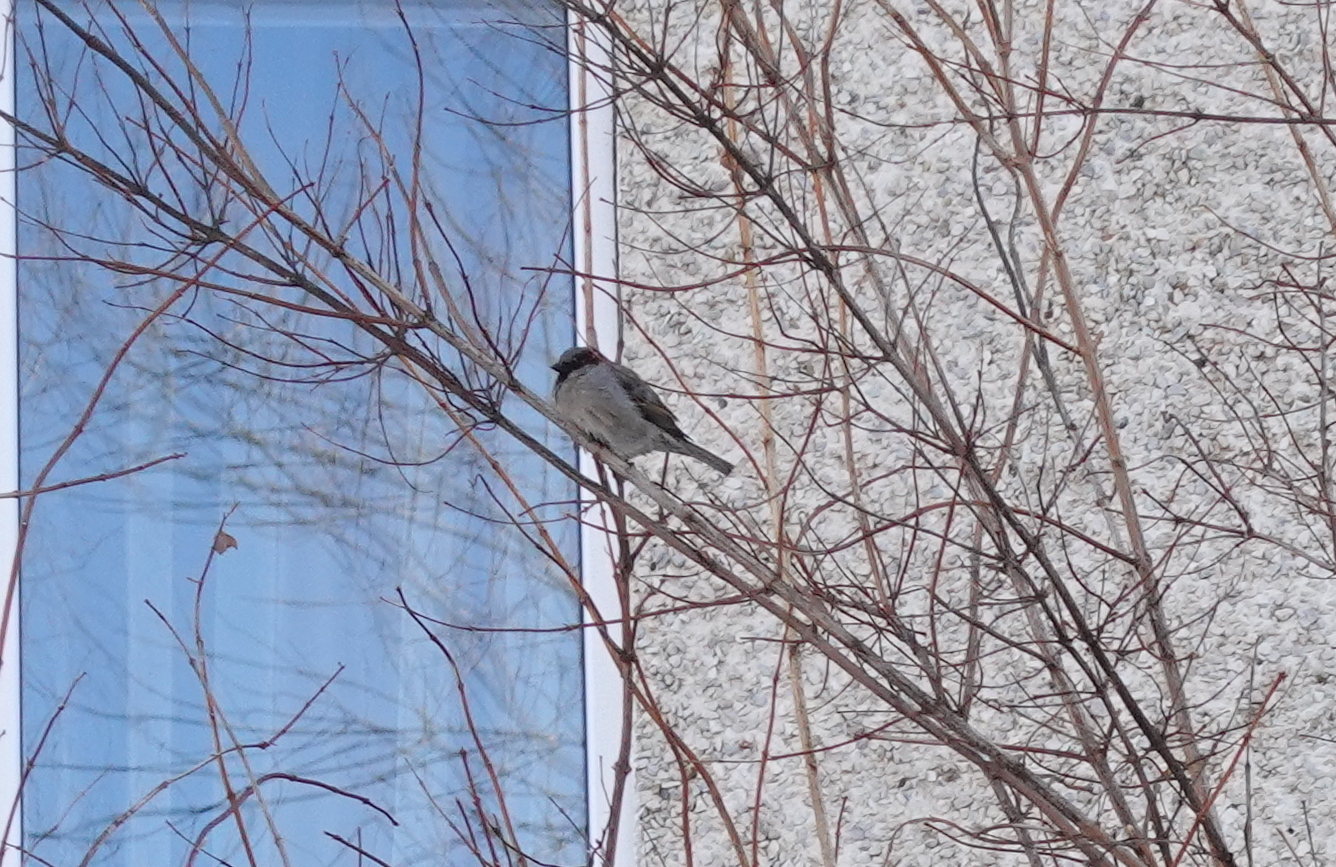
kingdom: Animalia
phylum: Chordata
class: Aves
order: Passeriformes
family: Passeridae
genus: Passer
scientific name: Passer domesticus
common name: House sparrow
